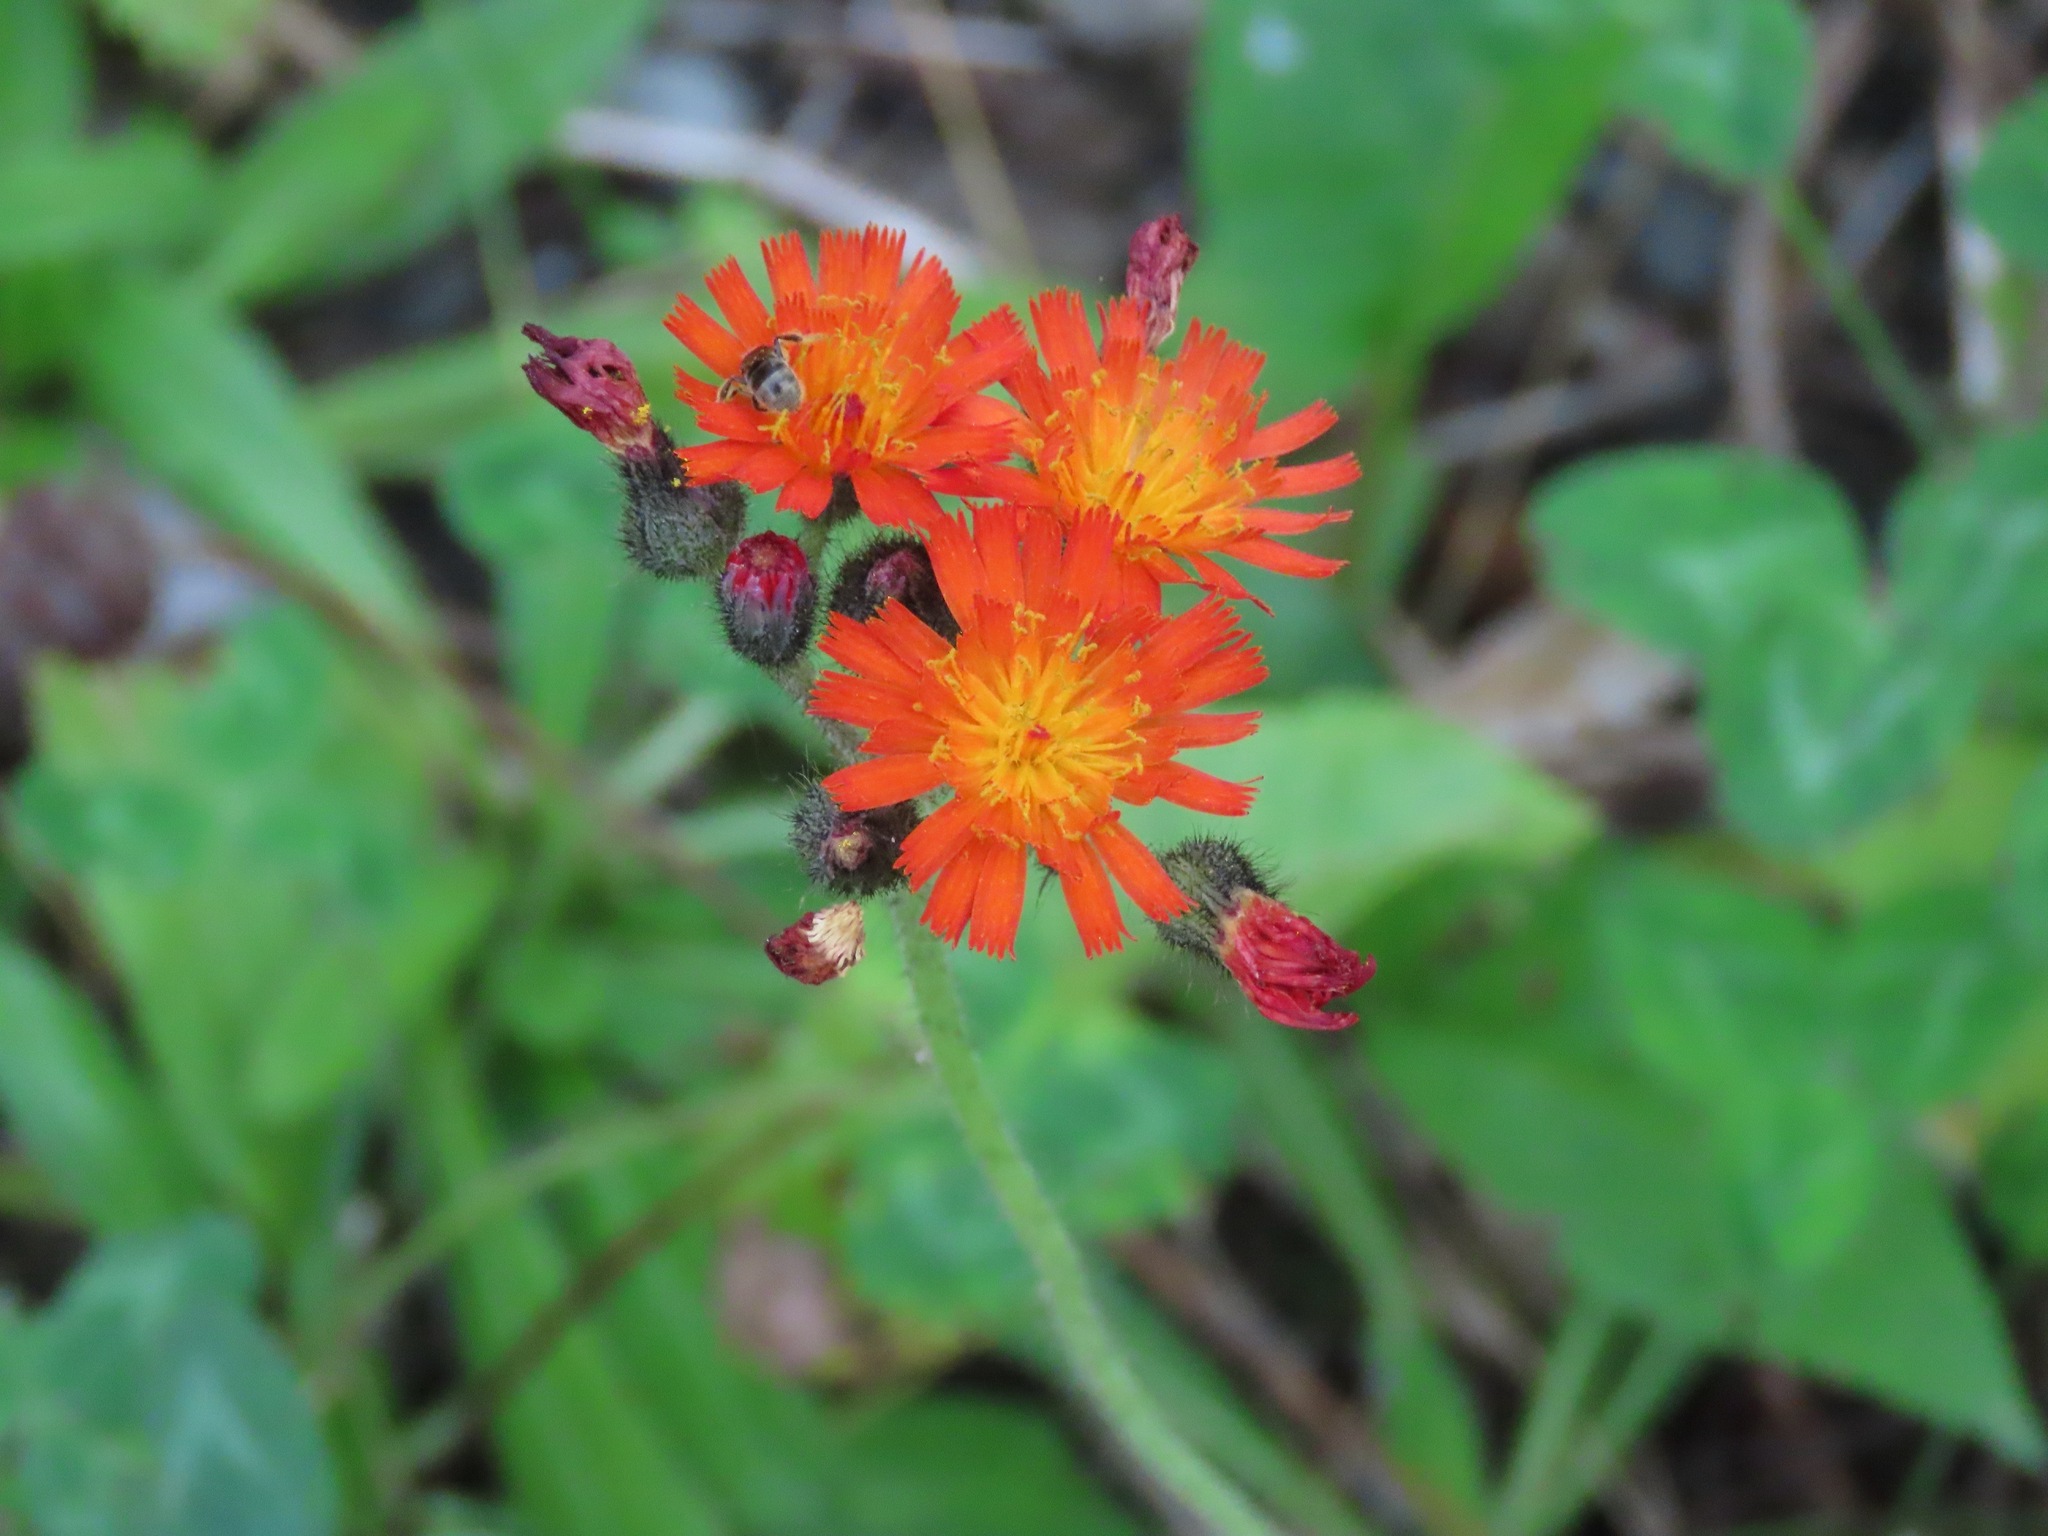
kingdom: Plantae
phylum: Tracheophyta
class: Magnoliopsida
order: Asterales
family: Asteraceae
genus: Pilosella
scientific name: Pilosella aurantiaca
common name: Fox-and-cubs
